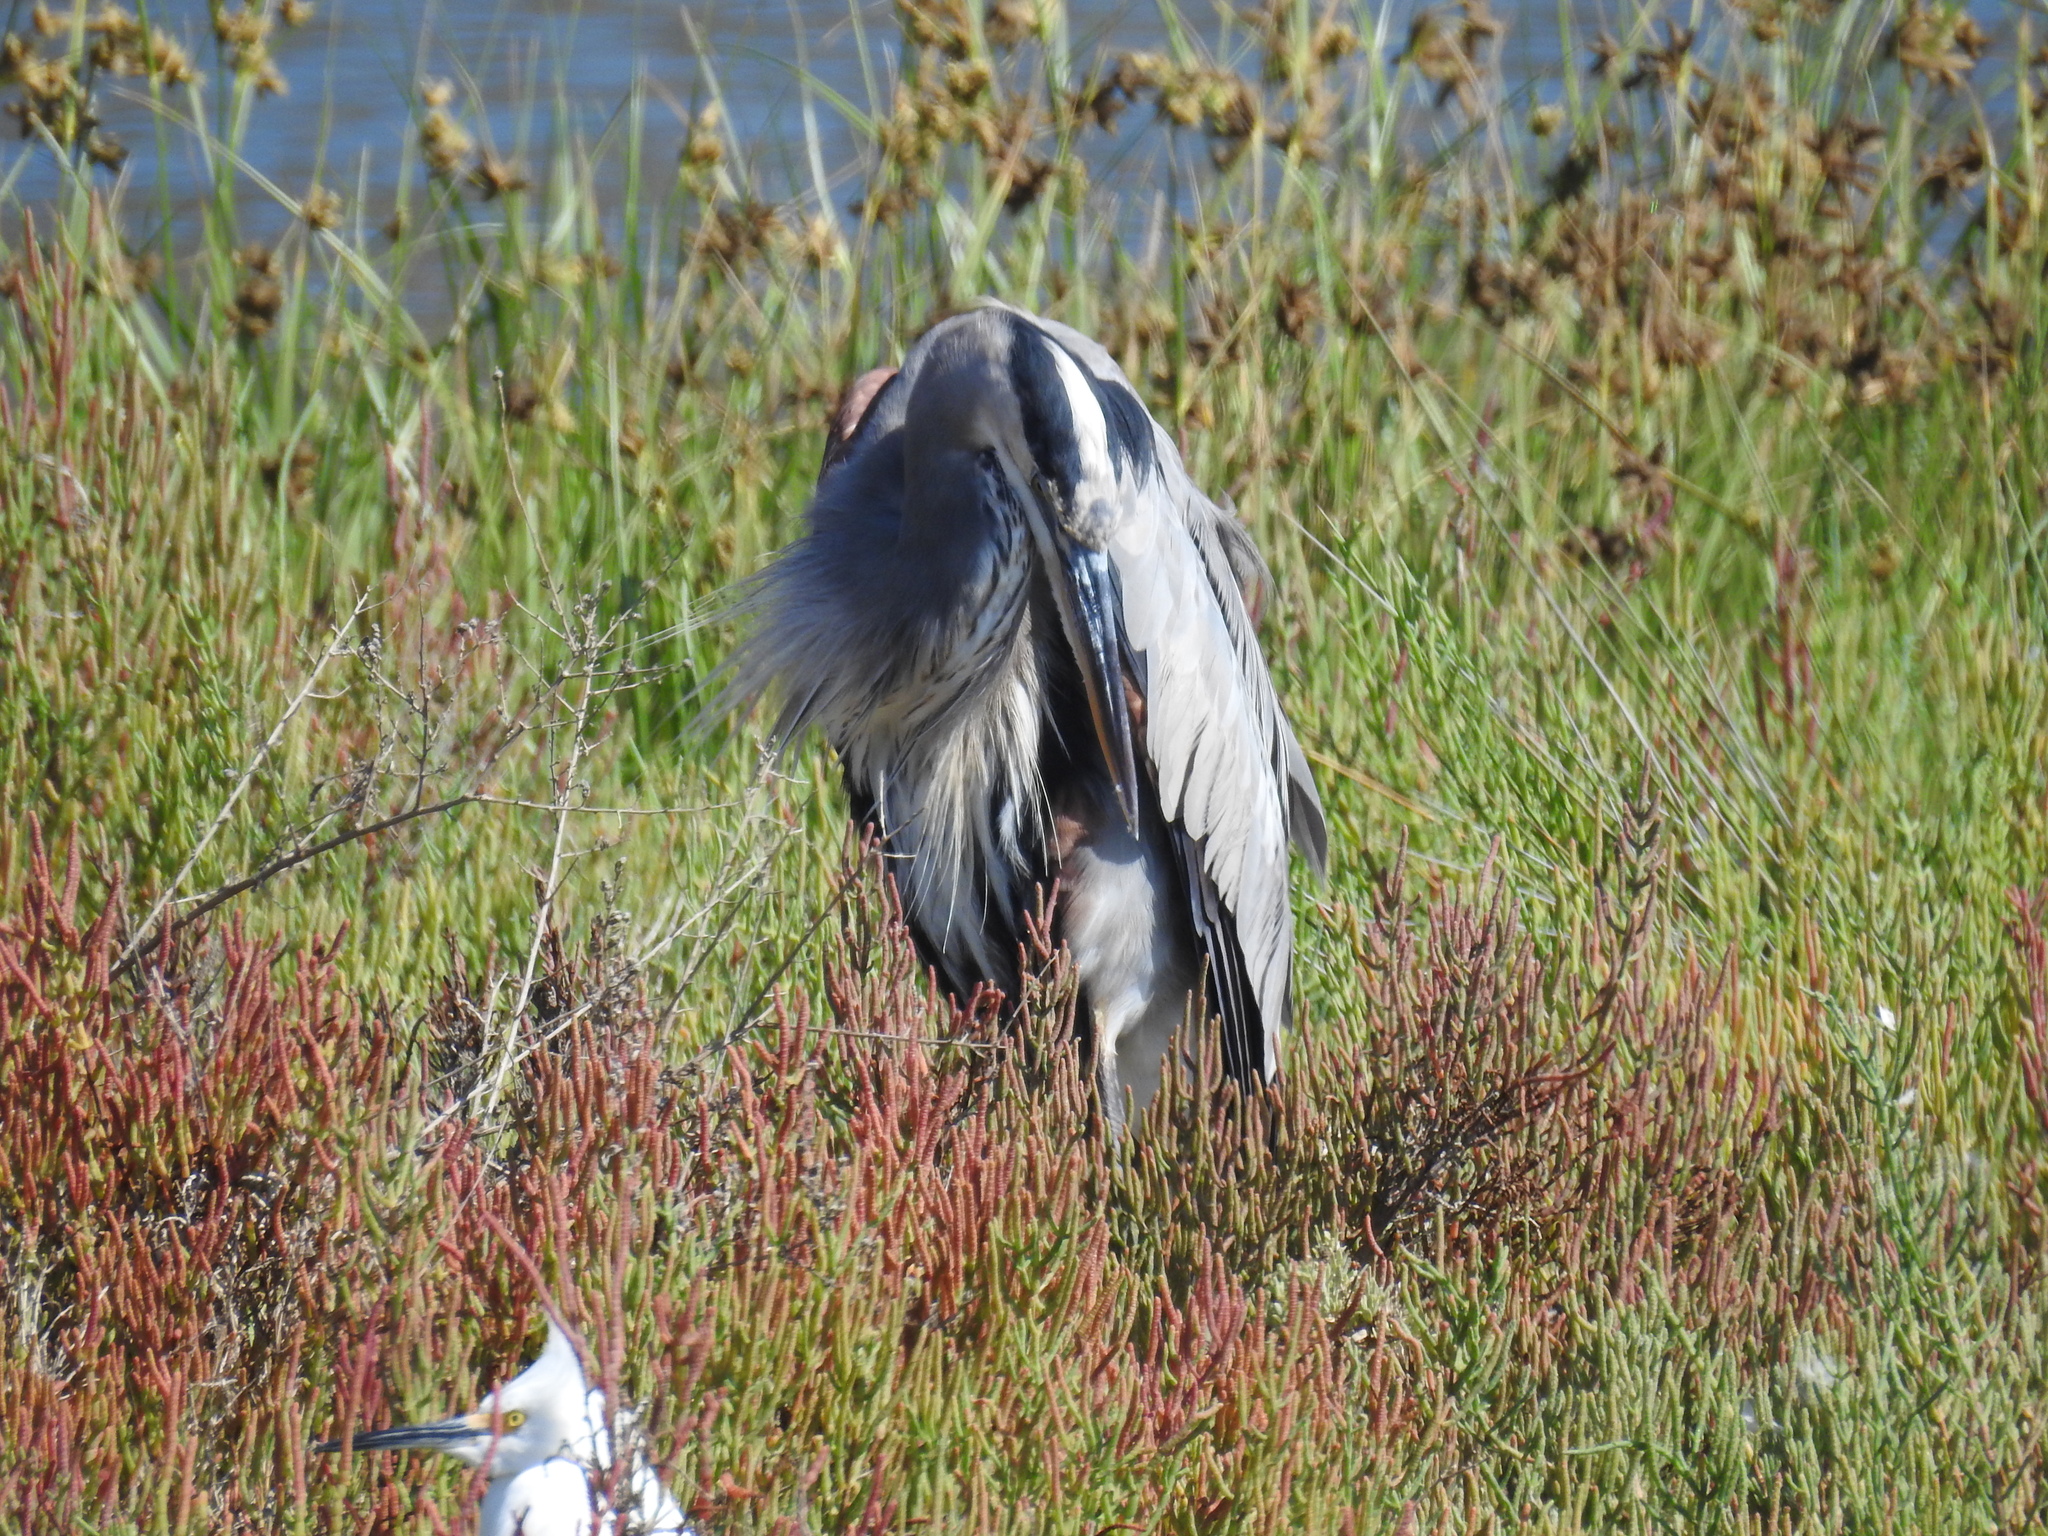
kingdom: Animalia
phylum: Chordata
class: Aves
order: Pelecaniformes
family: Ardeidae
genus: Ardea
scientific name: Ardea herodias
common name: Great blue heron
